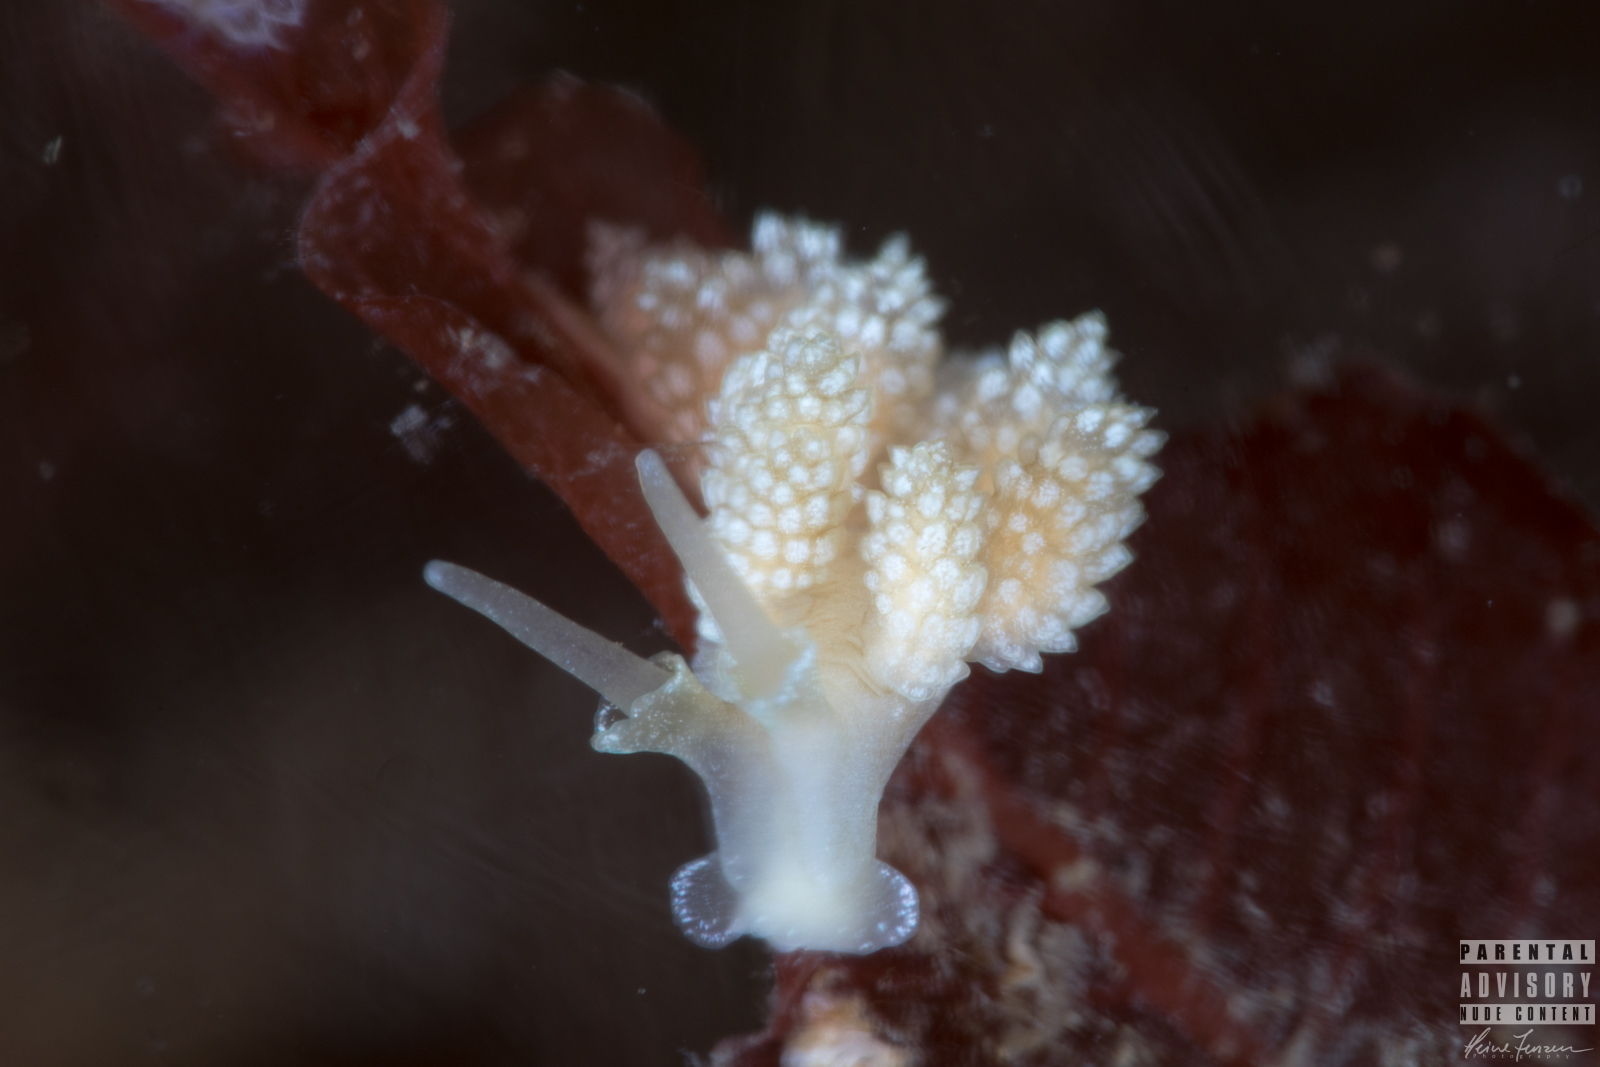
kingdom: Animalia
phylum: Mollusca
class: Gastropoda
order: Nudibranchia
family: Dotidae
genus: Doto
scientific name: Doto fragilis
